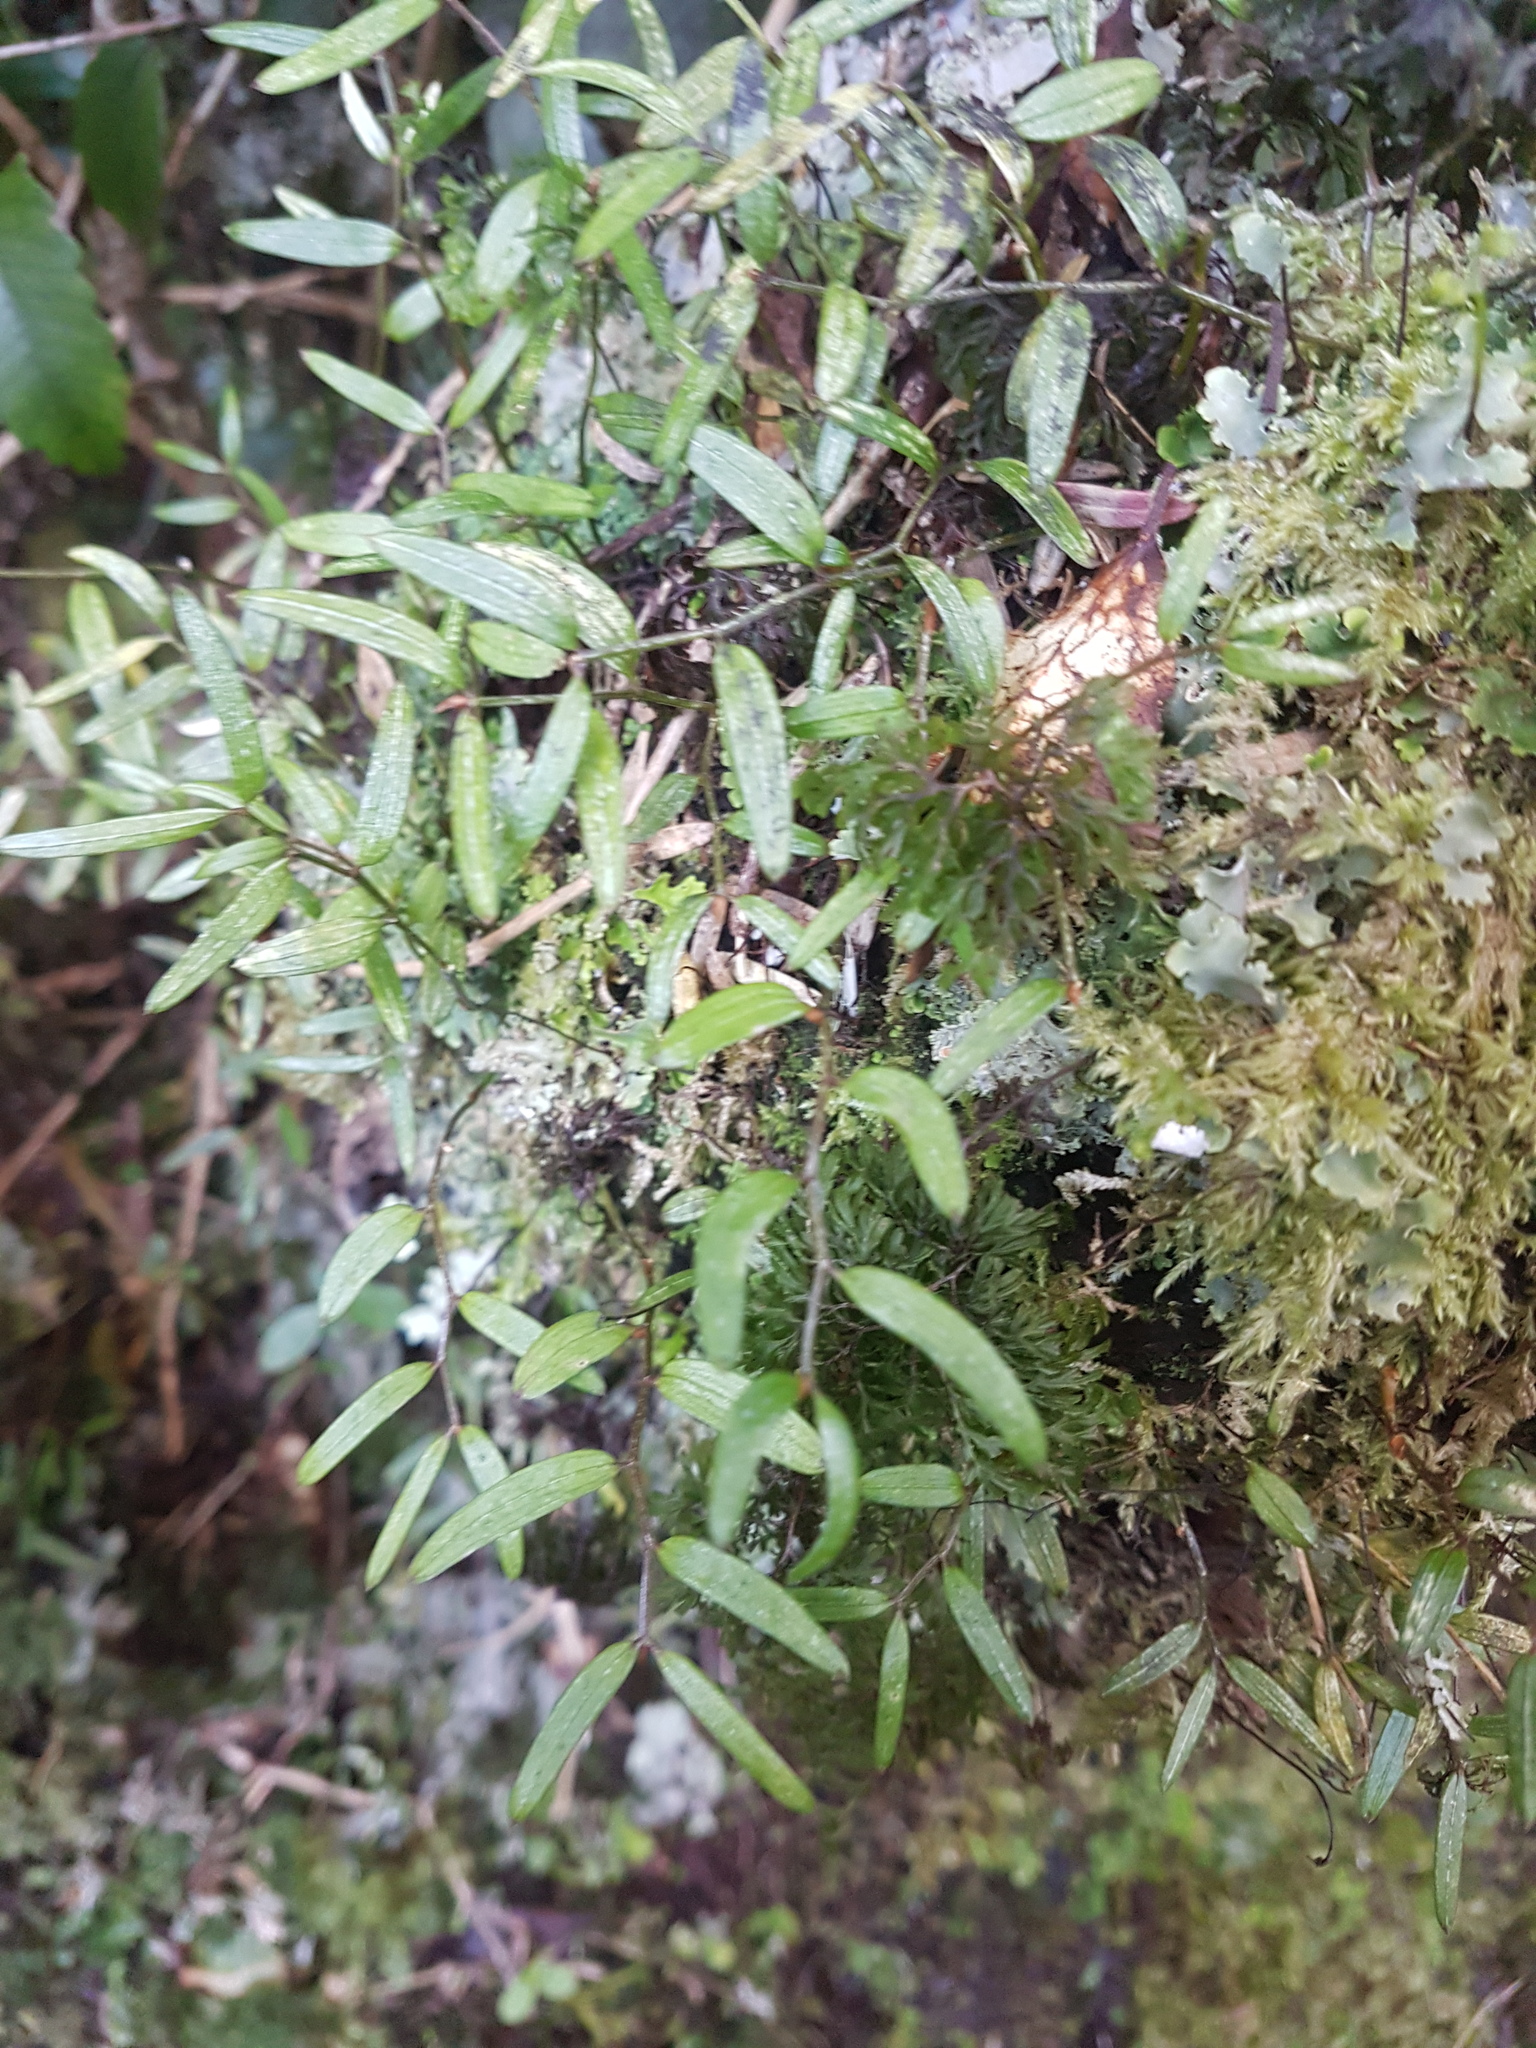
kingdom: Plantae
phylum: Tracheophyta
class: Liliopsida
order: Liliales
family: Alstroemeriaceae
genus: Luzuriaga
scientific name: Luzuriaga parviflora
